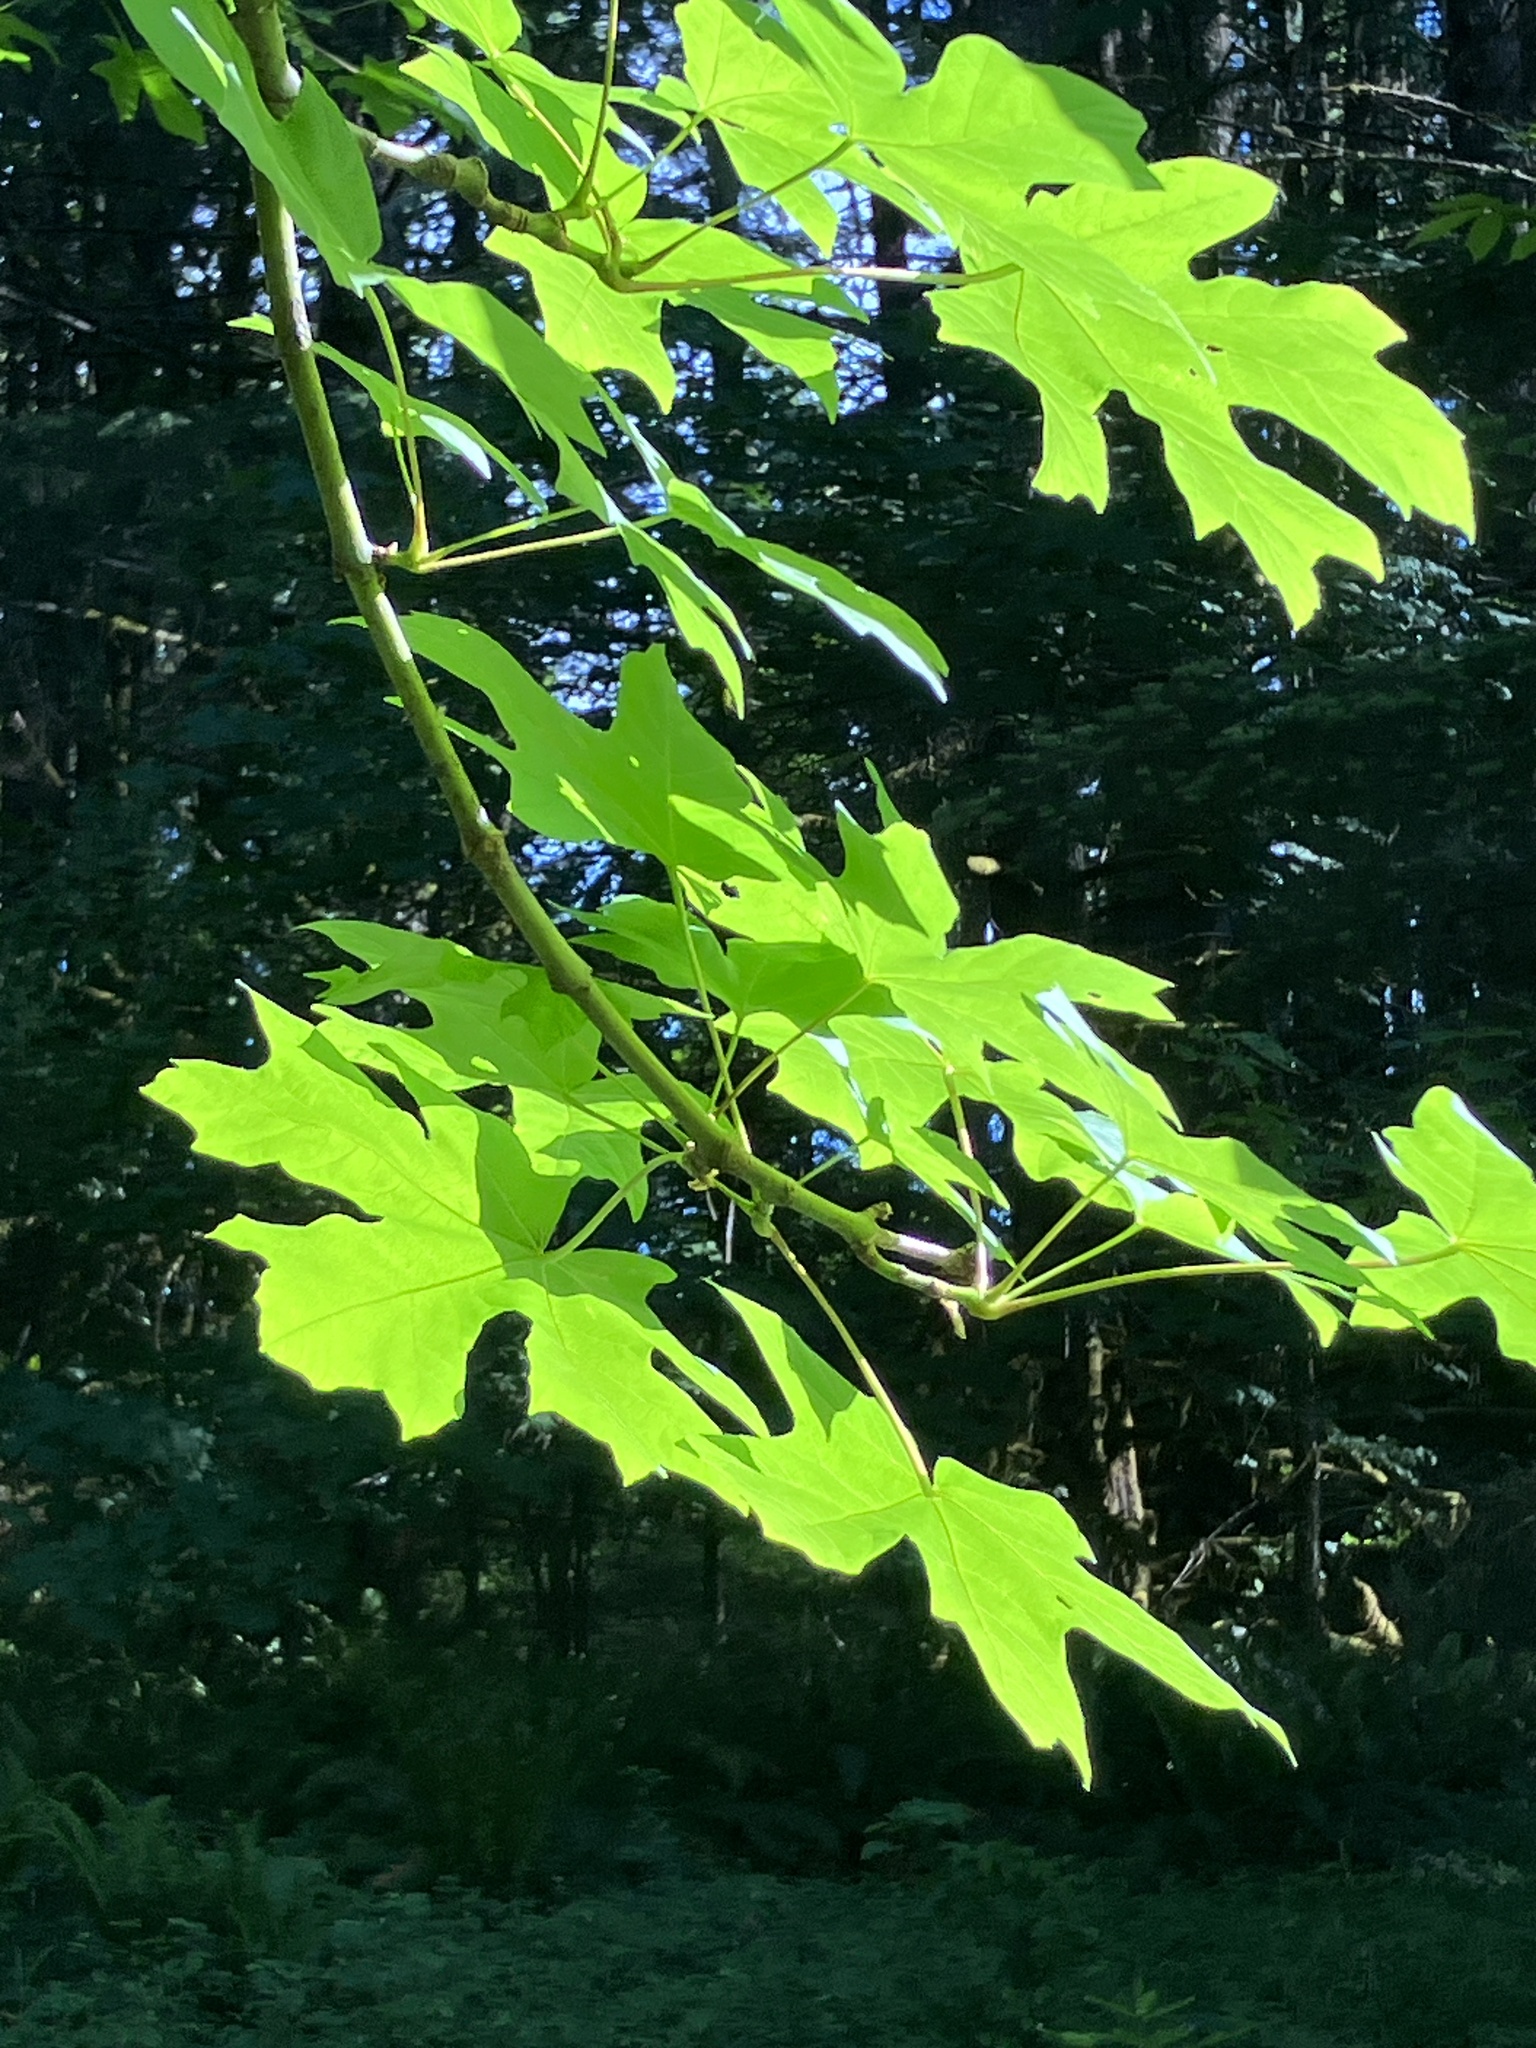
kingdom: Plantae
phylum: Tracheophyta
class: Magnoliopsida
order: Sapindales
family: Sapindaceae
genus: Acer
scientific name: Acer macrophyllum
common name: Oregon maple
